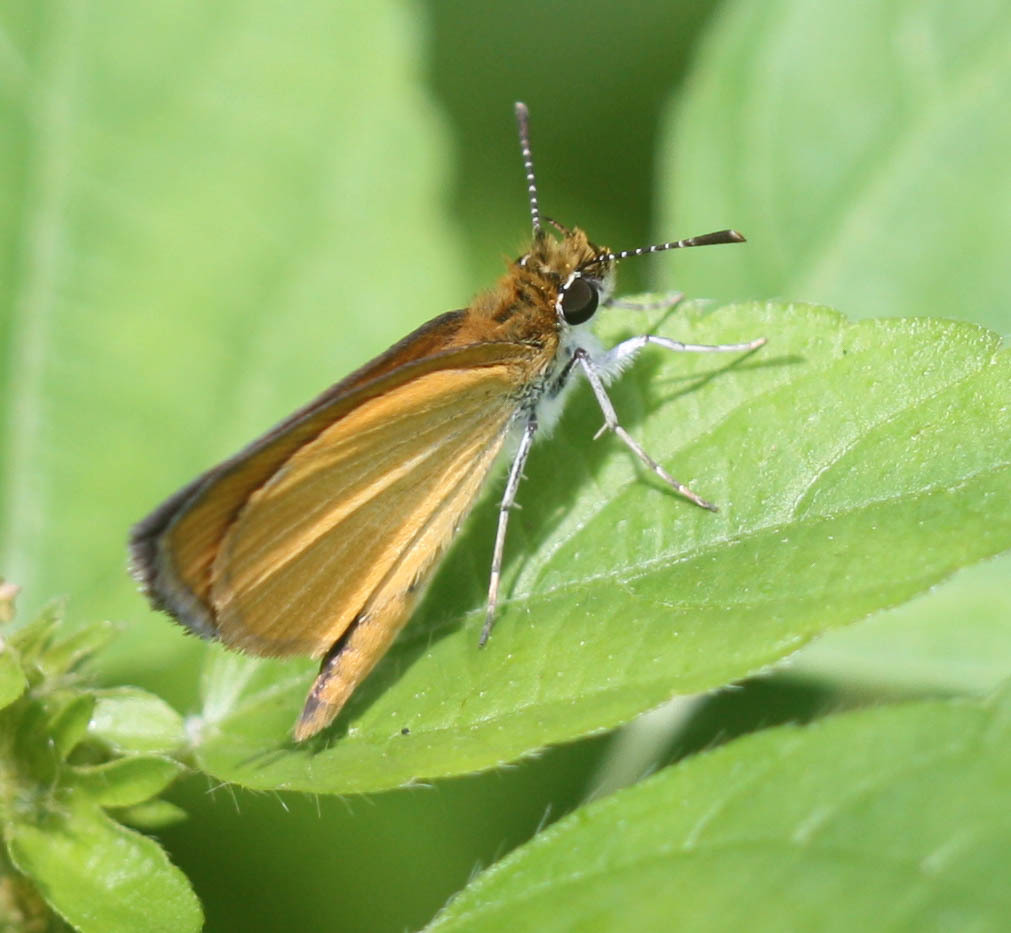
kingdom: Animalia
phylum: Arthropoda
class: Insecta
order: Lepidoptera
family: Hesperiidae
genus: Ancyloxypha
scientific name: Ancyloxypha numitor
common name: Least skipper
